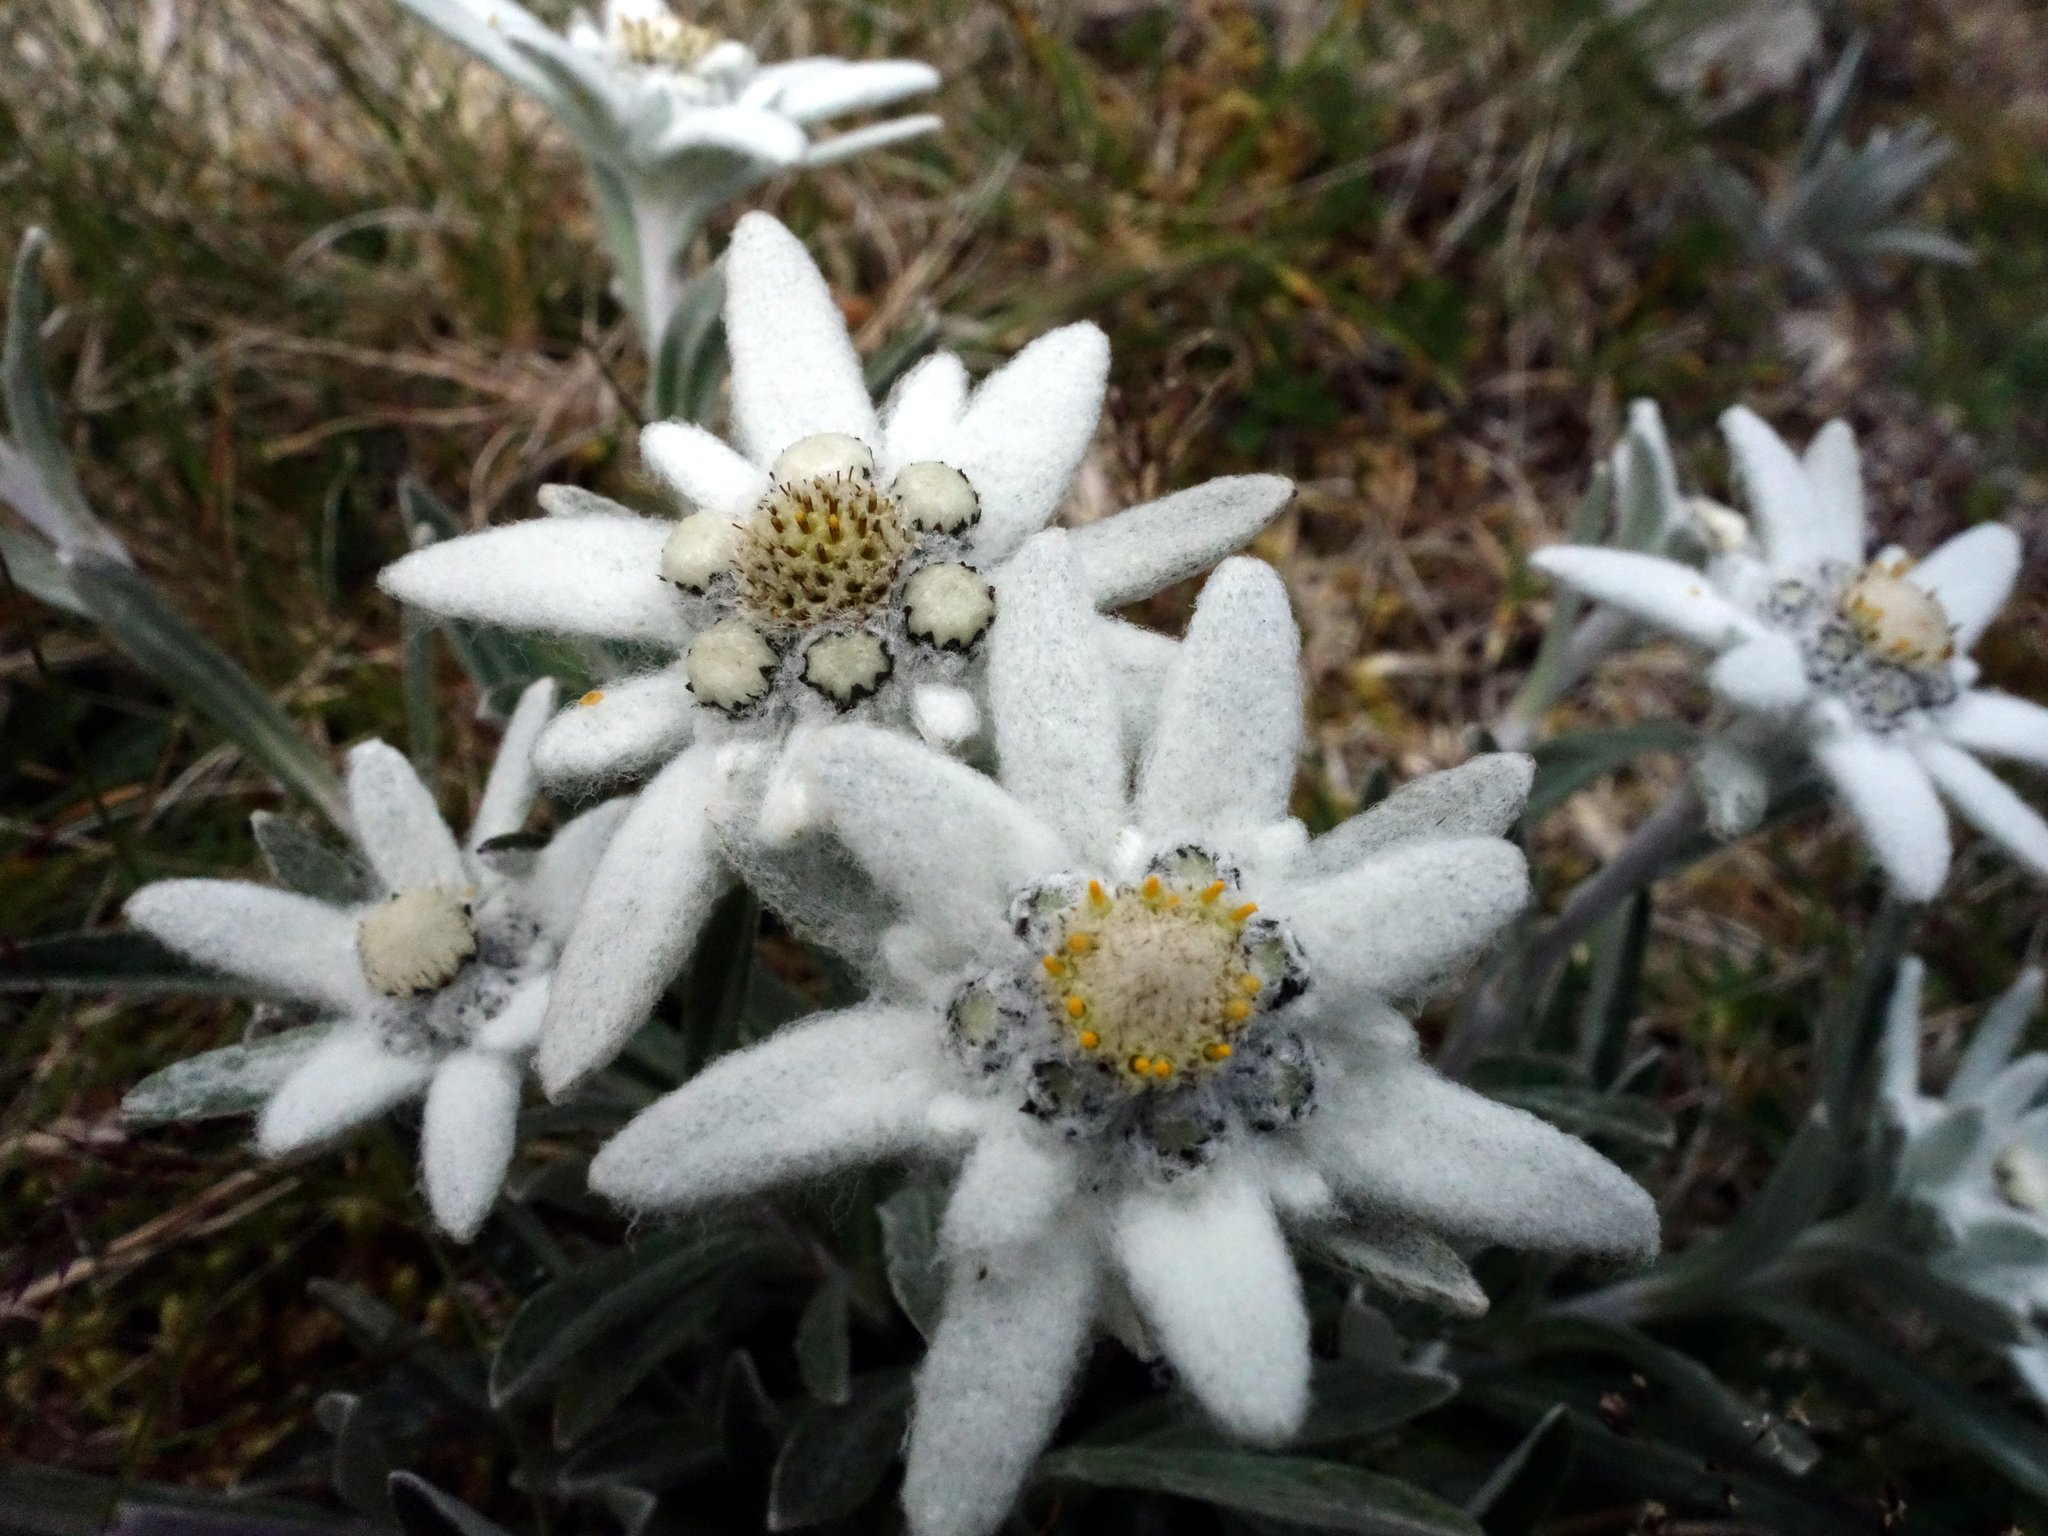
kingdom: Plantae
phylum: Tracheophyta
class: Magnoliopsida
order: Asterales
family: Asteraceae
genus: Leontopodium
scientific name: Leontopodium nivale
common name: Edelweiss
